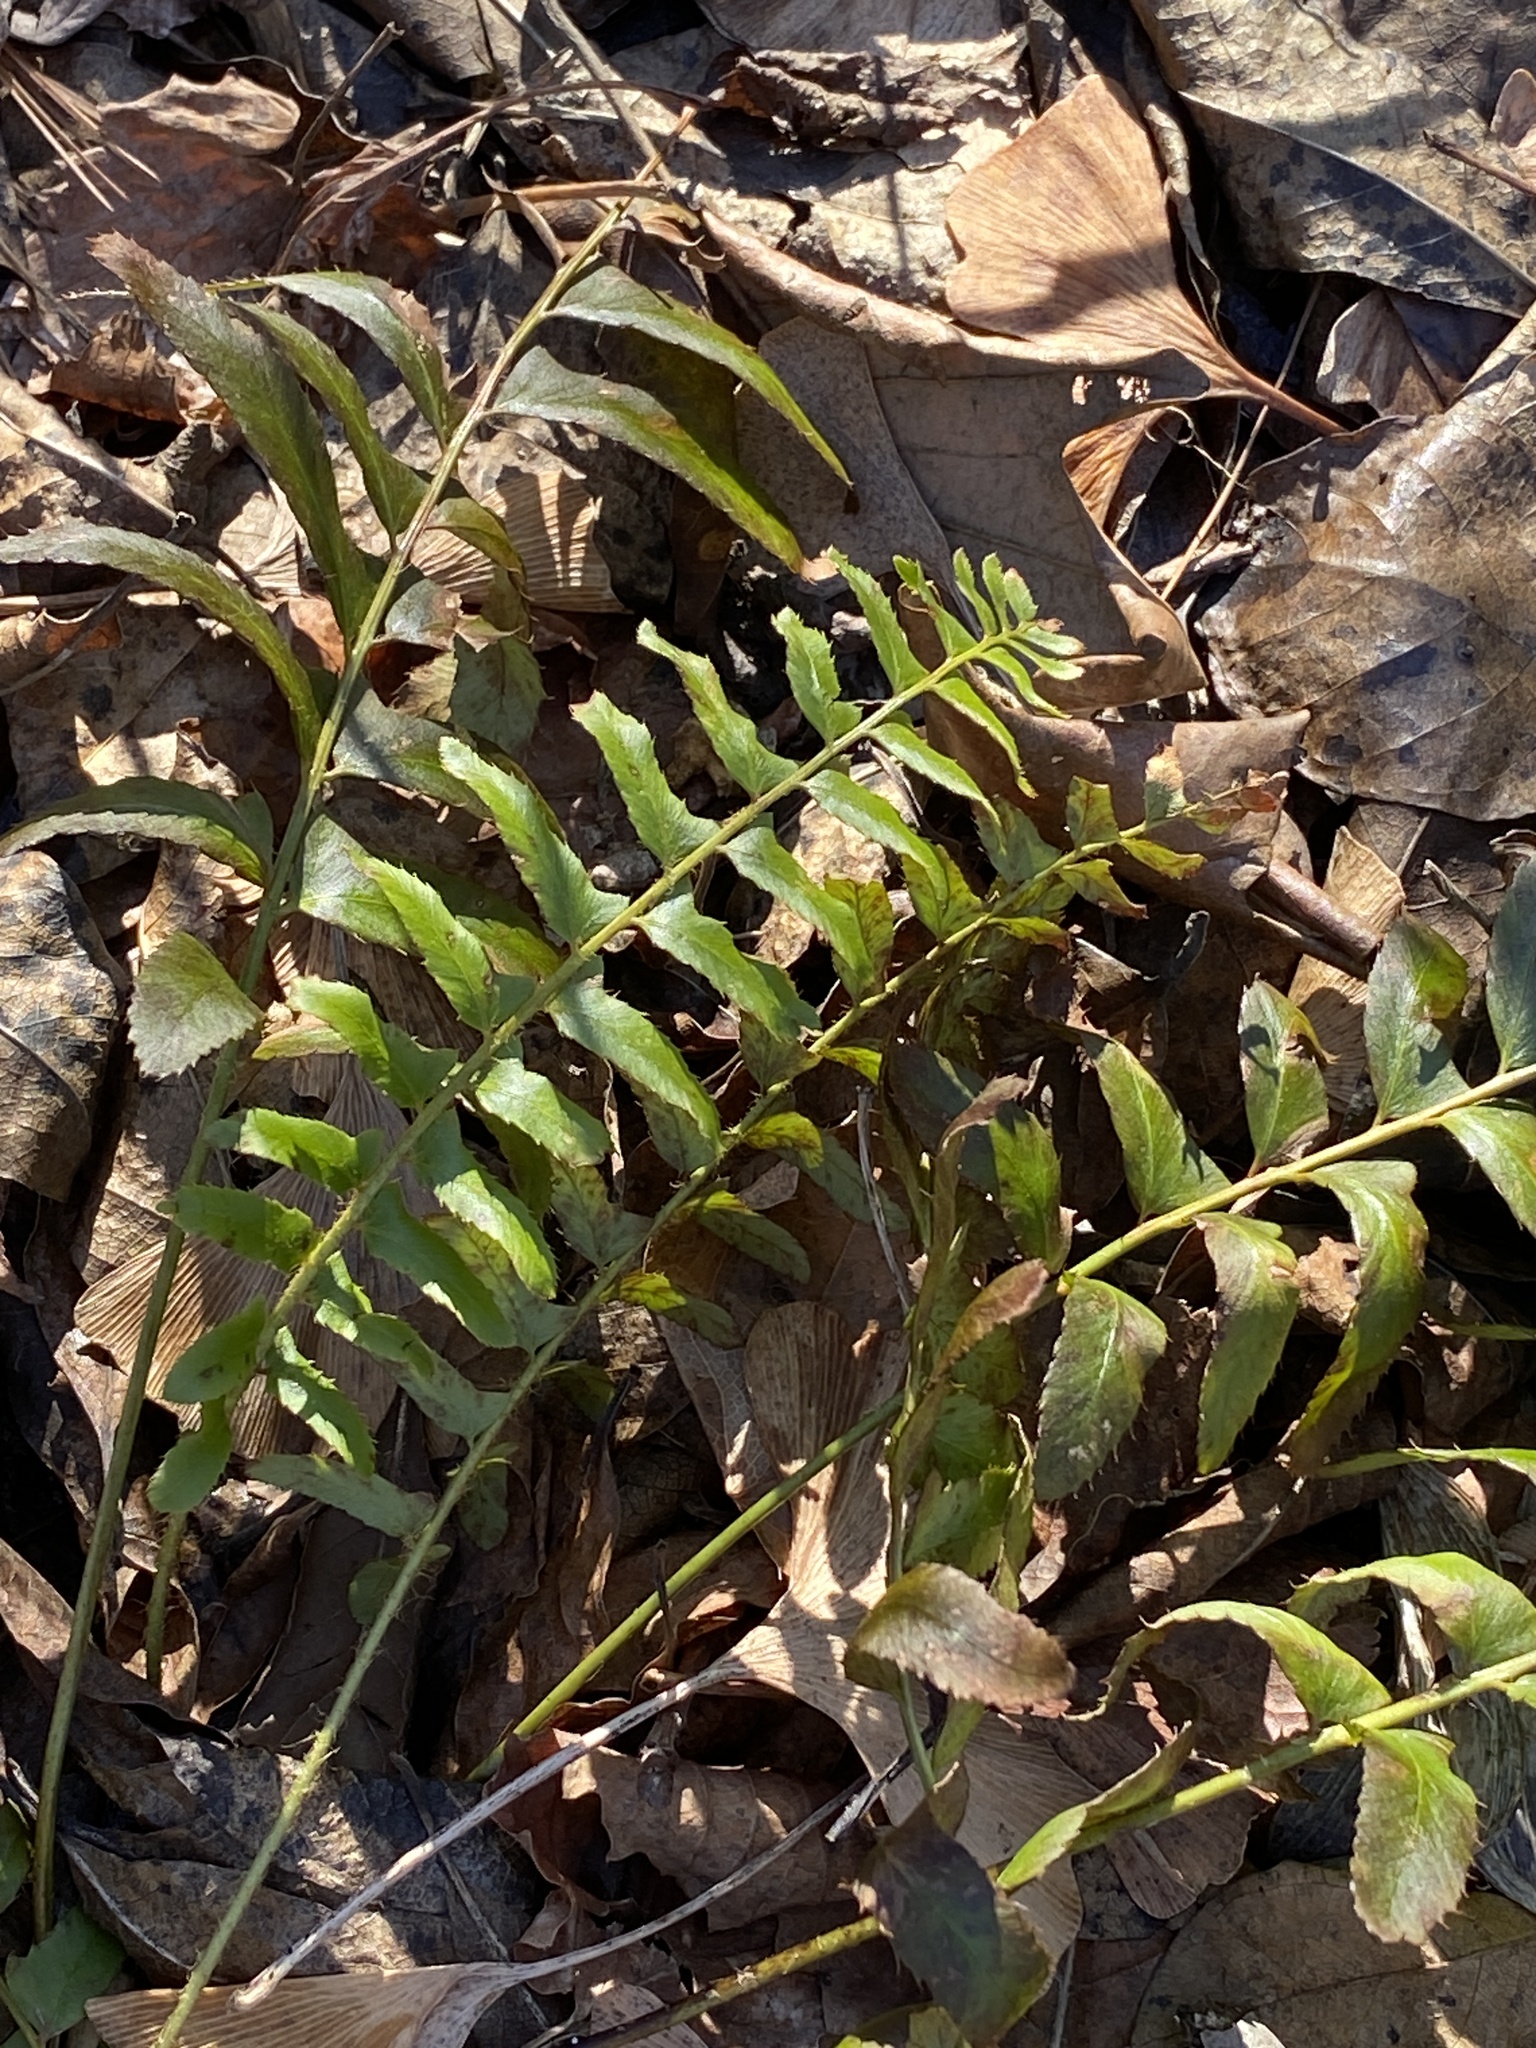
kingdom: Plantae
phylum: Tracheophyta
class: Polypodiopsida
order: Polypodiales
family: Dryopteridaceae
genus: Polystichum
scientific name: Polystichum acrostichoides
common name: Christmas fern
